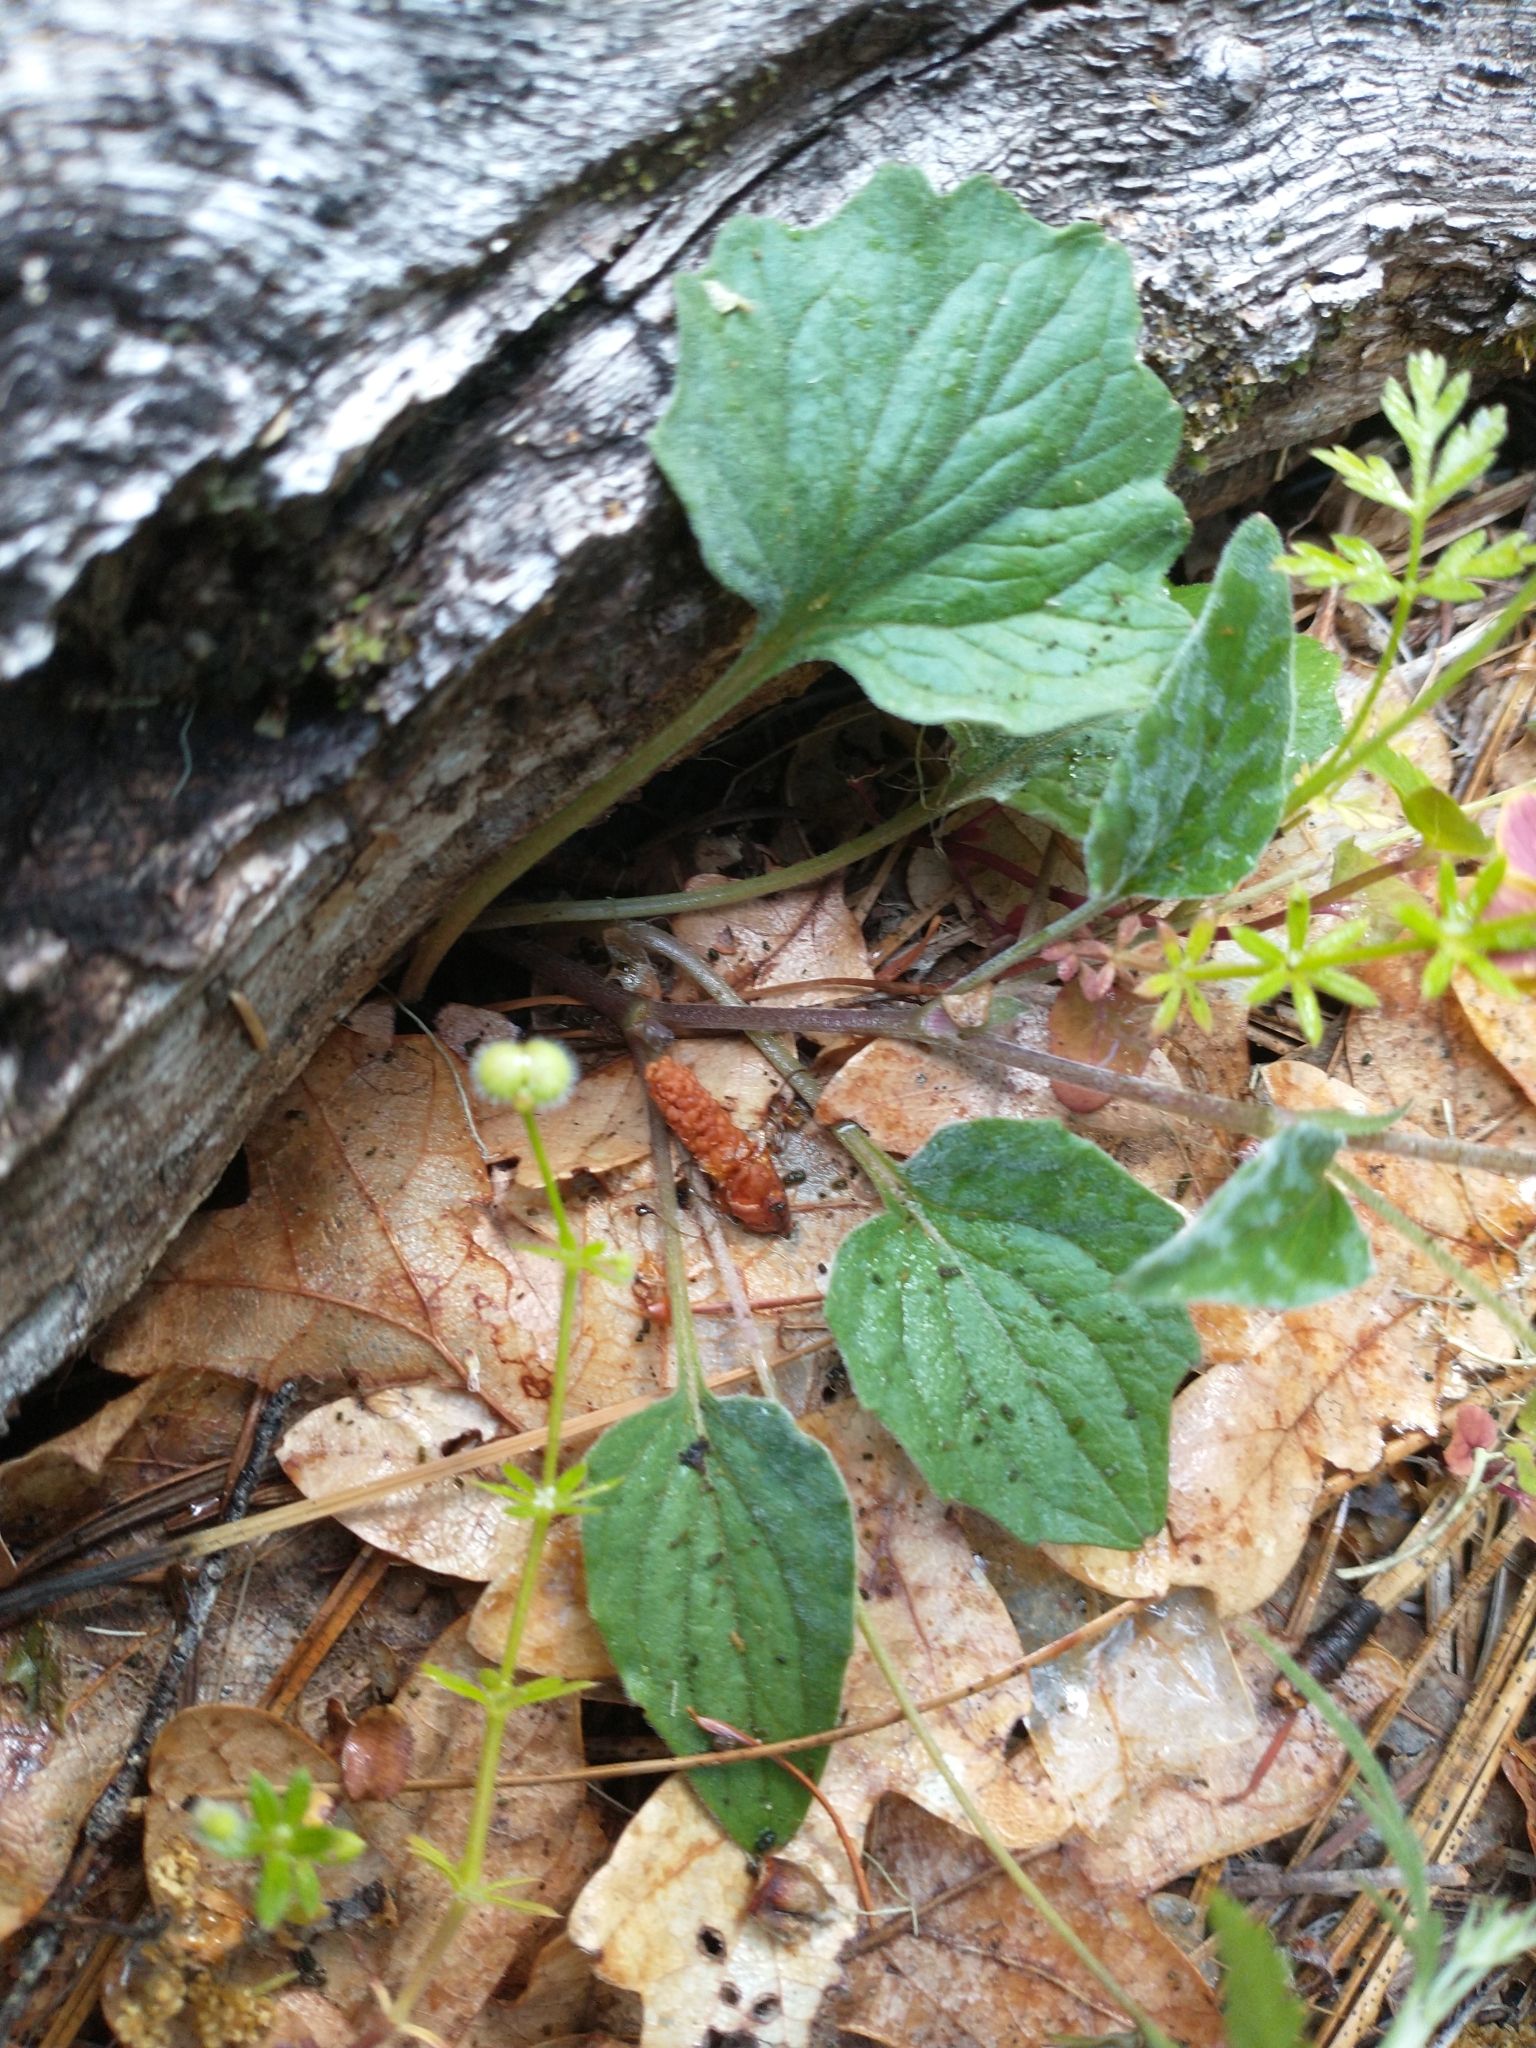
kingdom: Plantae
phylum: Tracheophyta
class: Magnoliopsida
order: Malpighiales
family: Violaceae
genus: Viola
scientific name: Viola purpurea
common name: Pine violet
